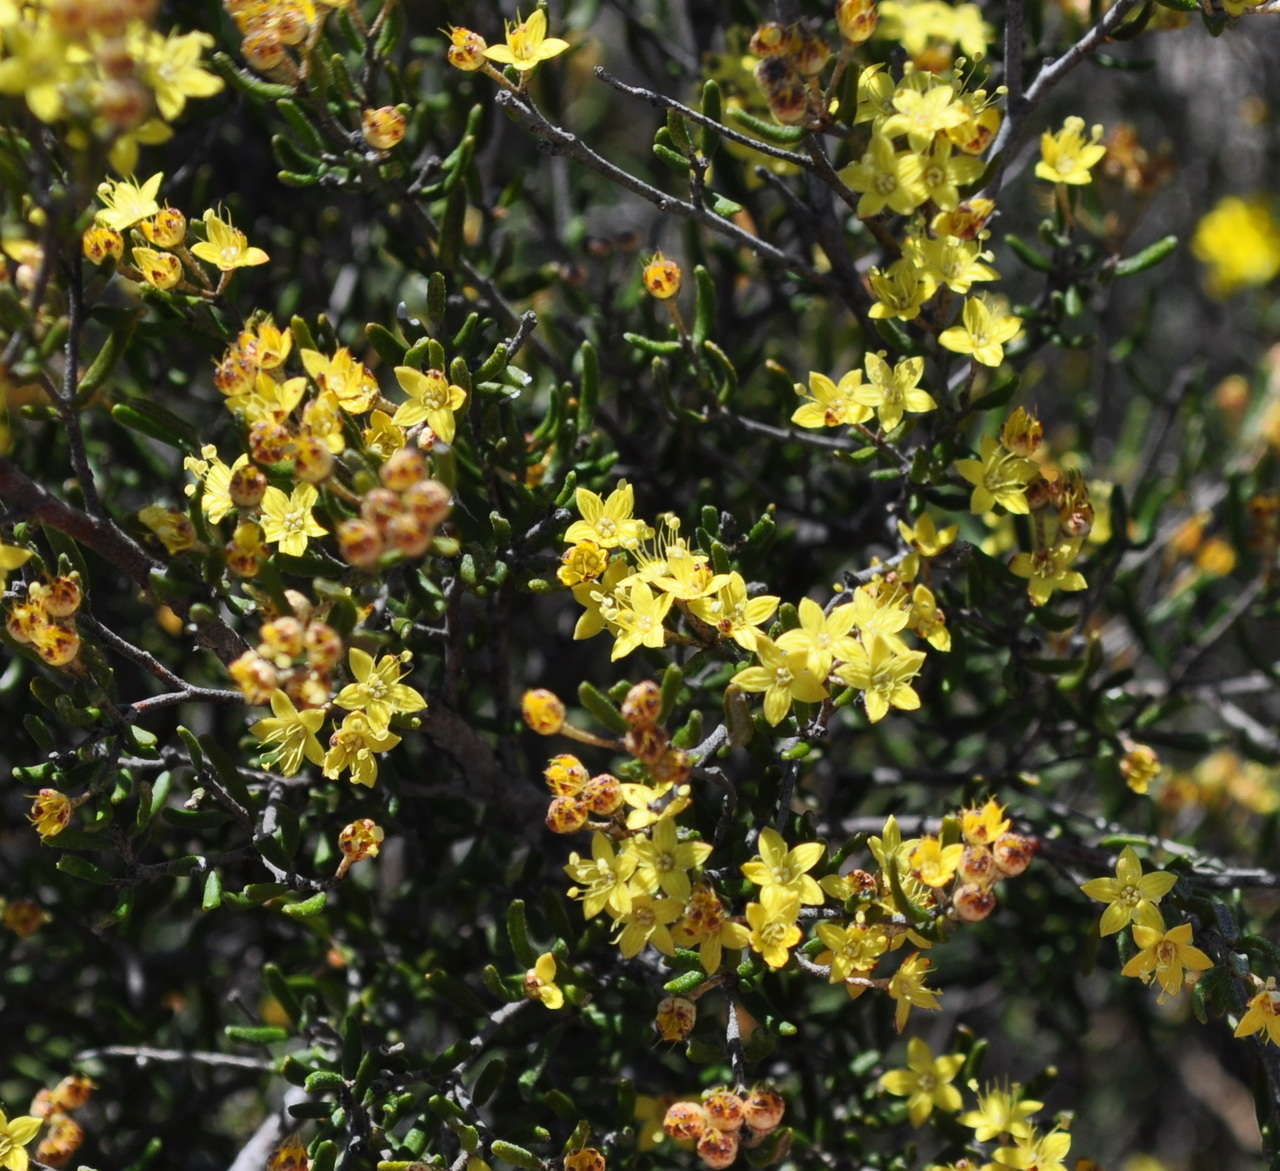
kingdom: Plantae
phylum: Tracheophyta
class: Magnoliopsida
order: Sapindales
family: Rutaceae
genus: Phebalium
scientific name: Phebalium stenophyllum
